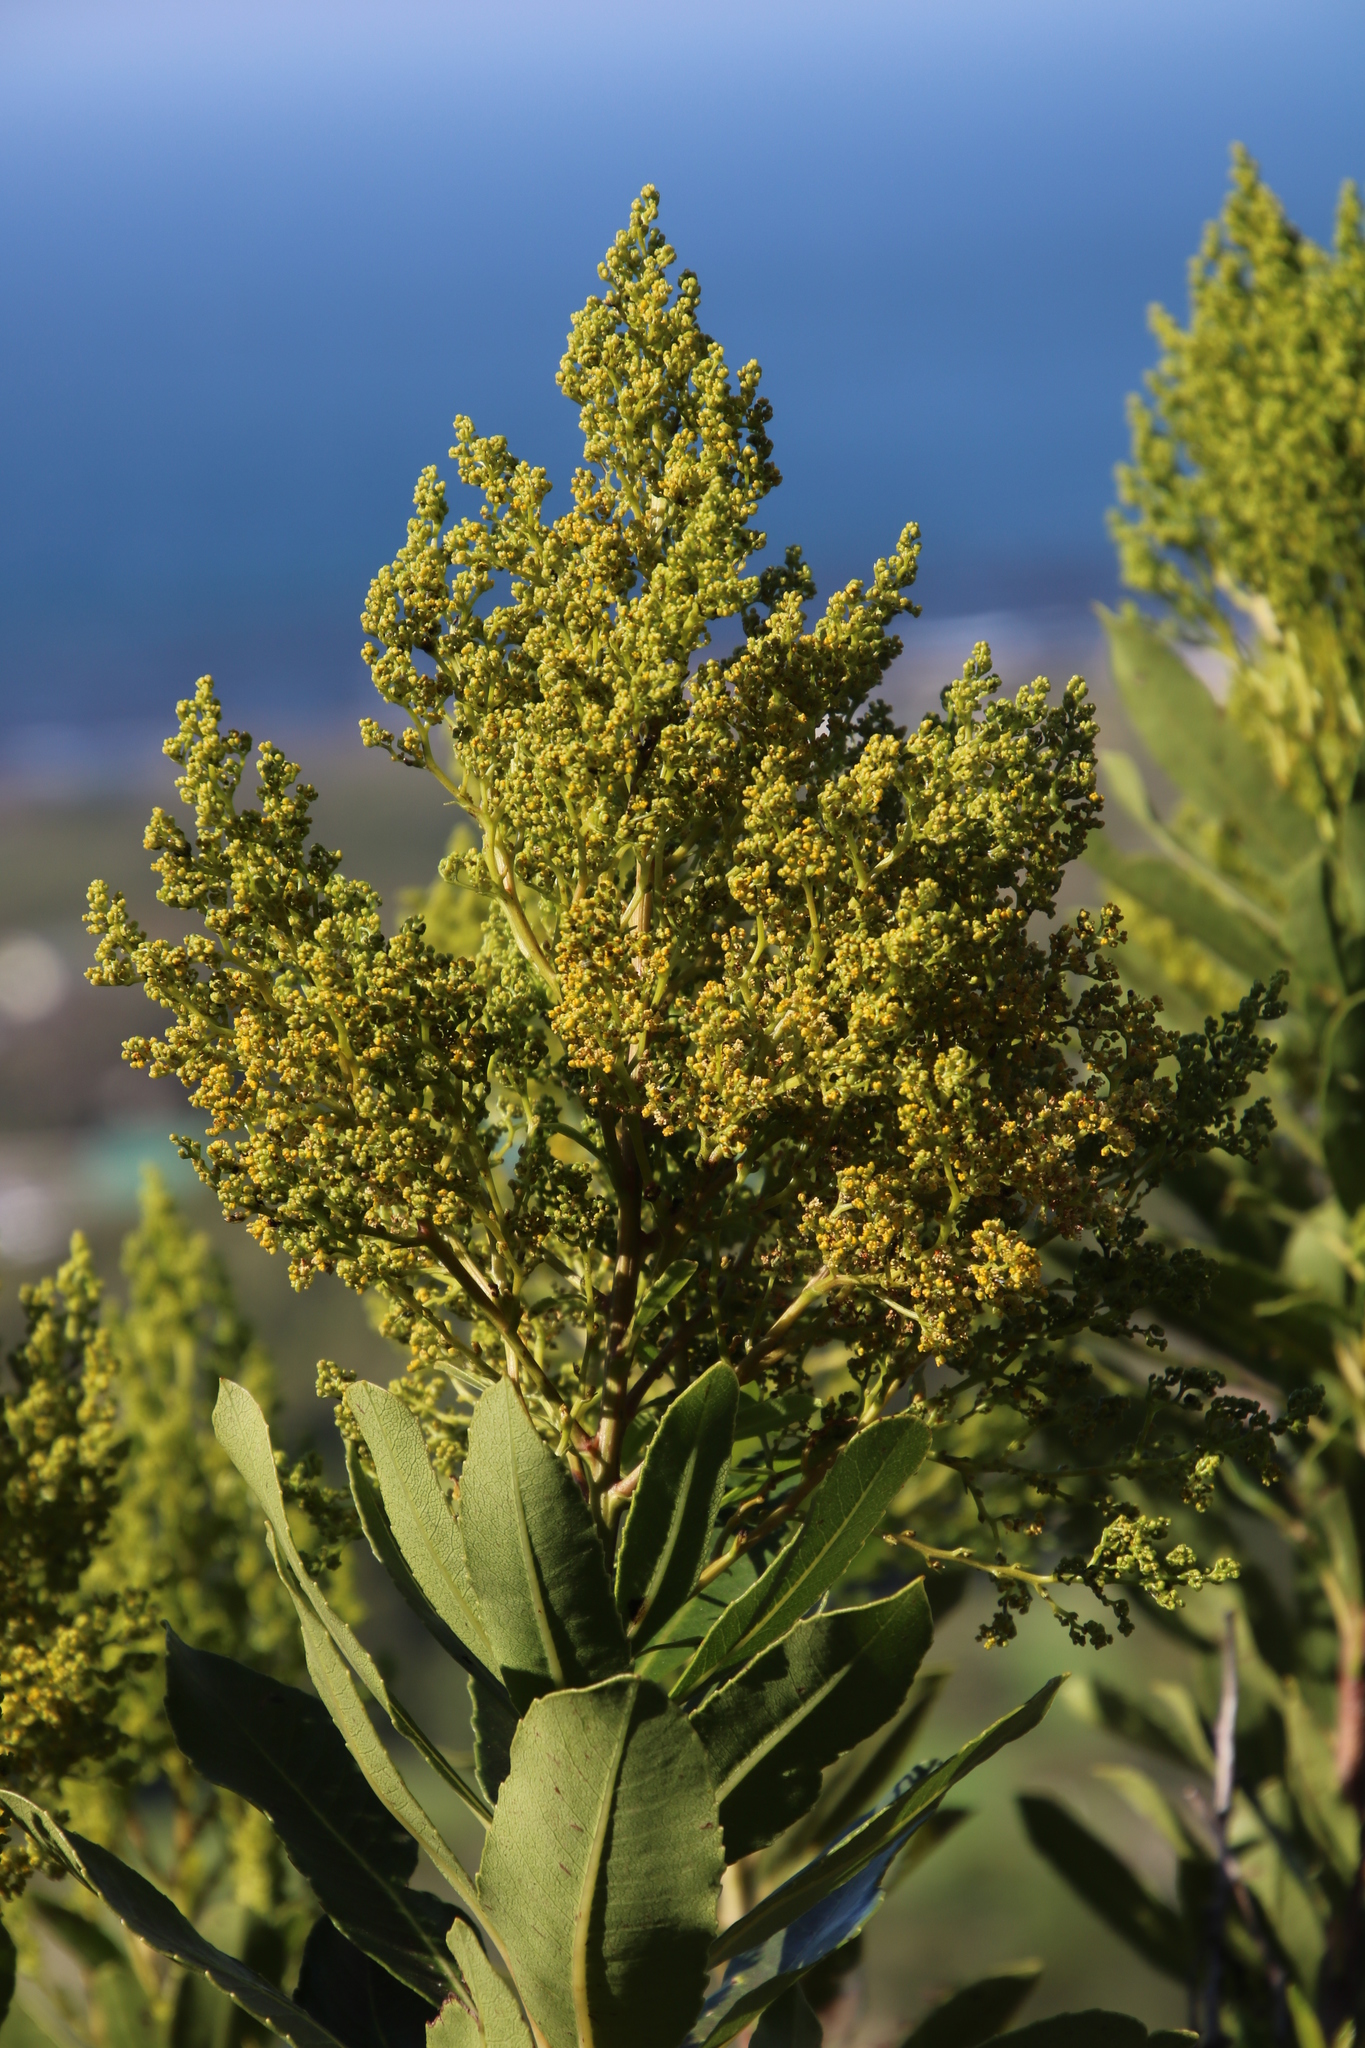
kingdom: Plantae
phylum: Tracheophyta
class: Magnoliopsida
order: Sapindales
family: Anacardiaceae
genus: Laurophyllus
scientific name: Laurophyllus capensis
